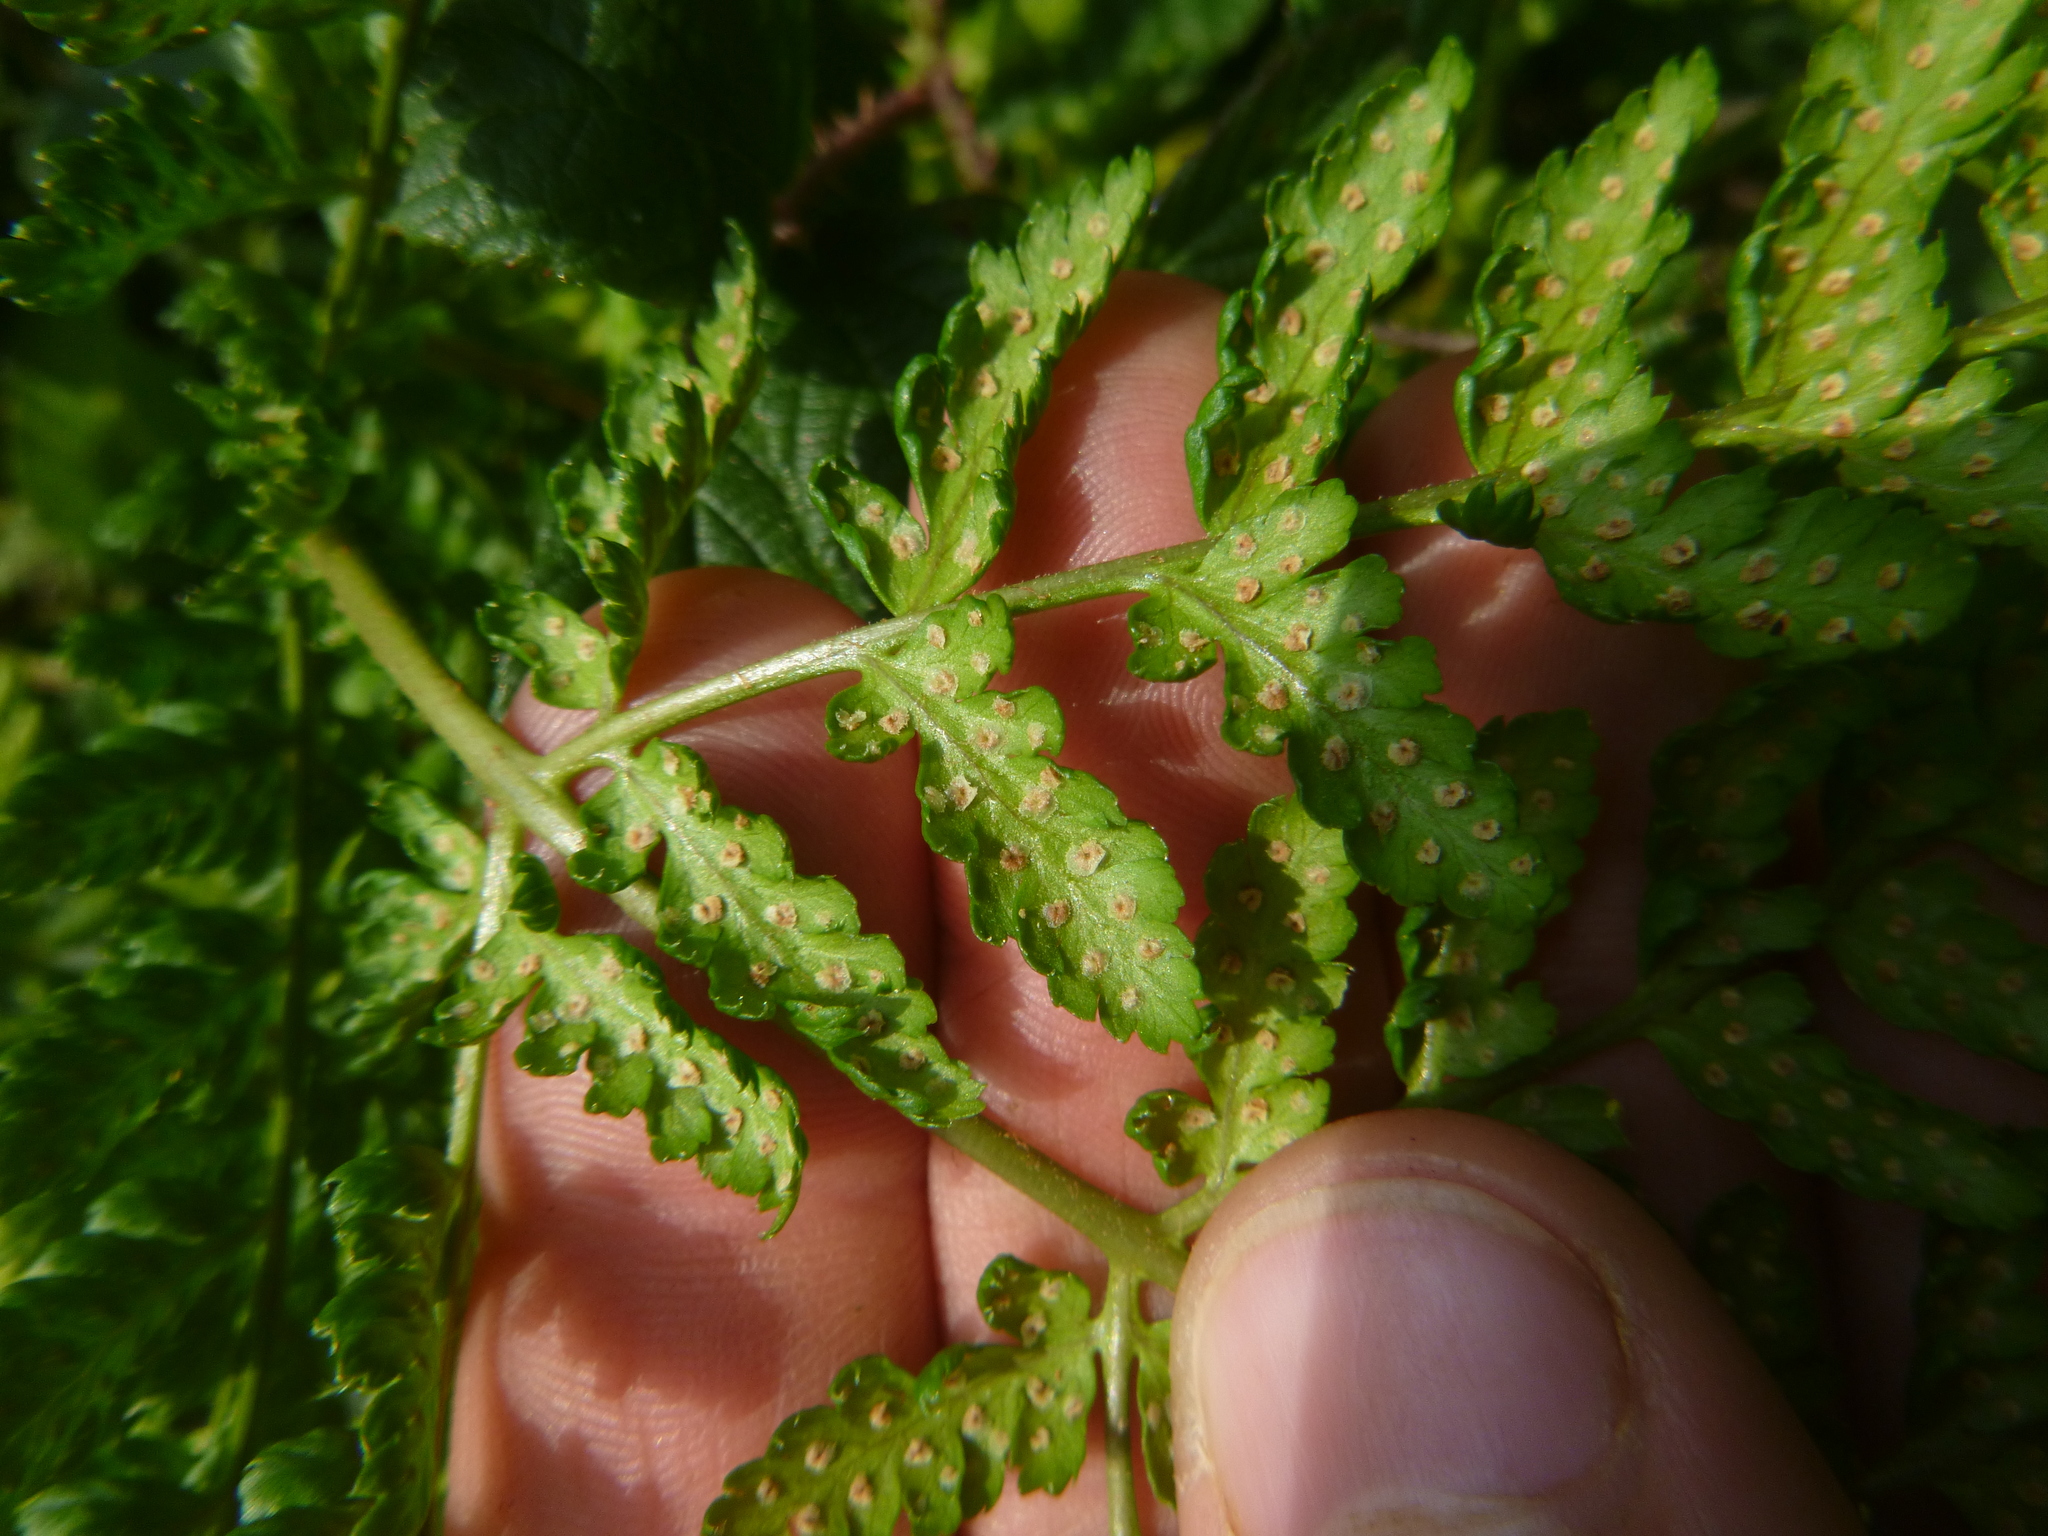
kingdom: Plantae
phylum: Tracheophyta
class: Polypodiopsida
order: Polypodiales
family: Dryopteridaceae
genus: Dryopteris
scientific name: Dryopteris dilatata
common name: Broad buckler-fern
